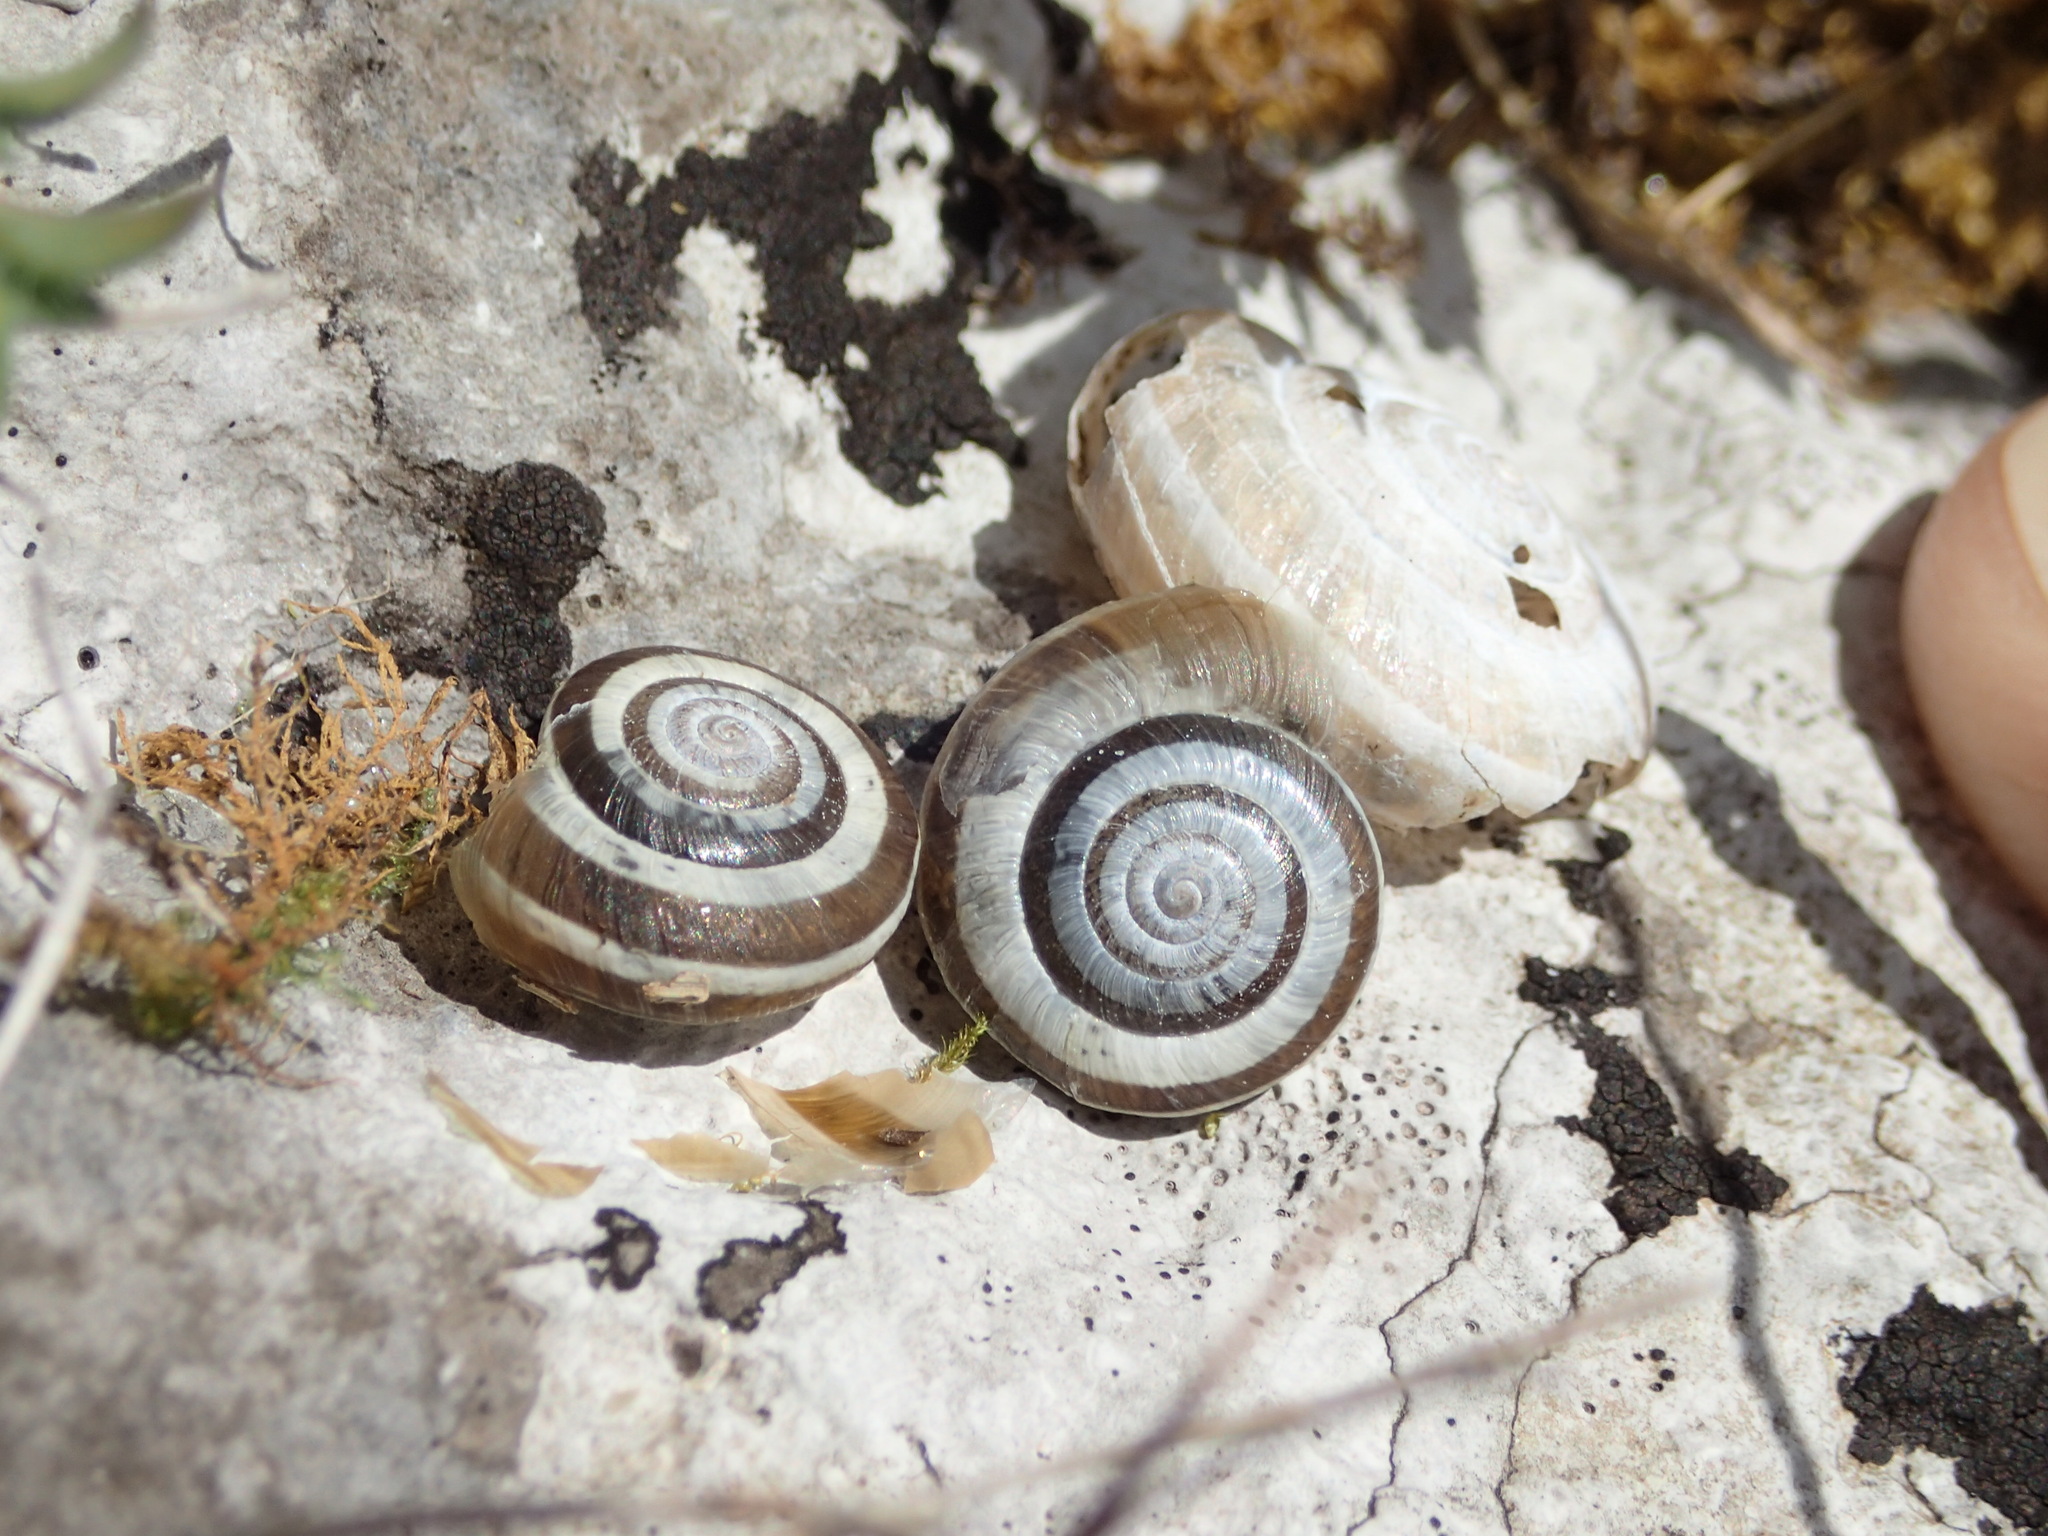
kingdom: Animalia
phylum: Mollusca
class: Gastropoda
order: Stylommatophora
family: Geomitridae
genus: Helicella
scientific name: Helicella itala
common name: Heath snail
